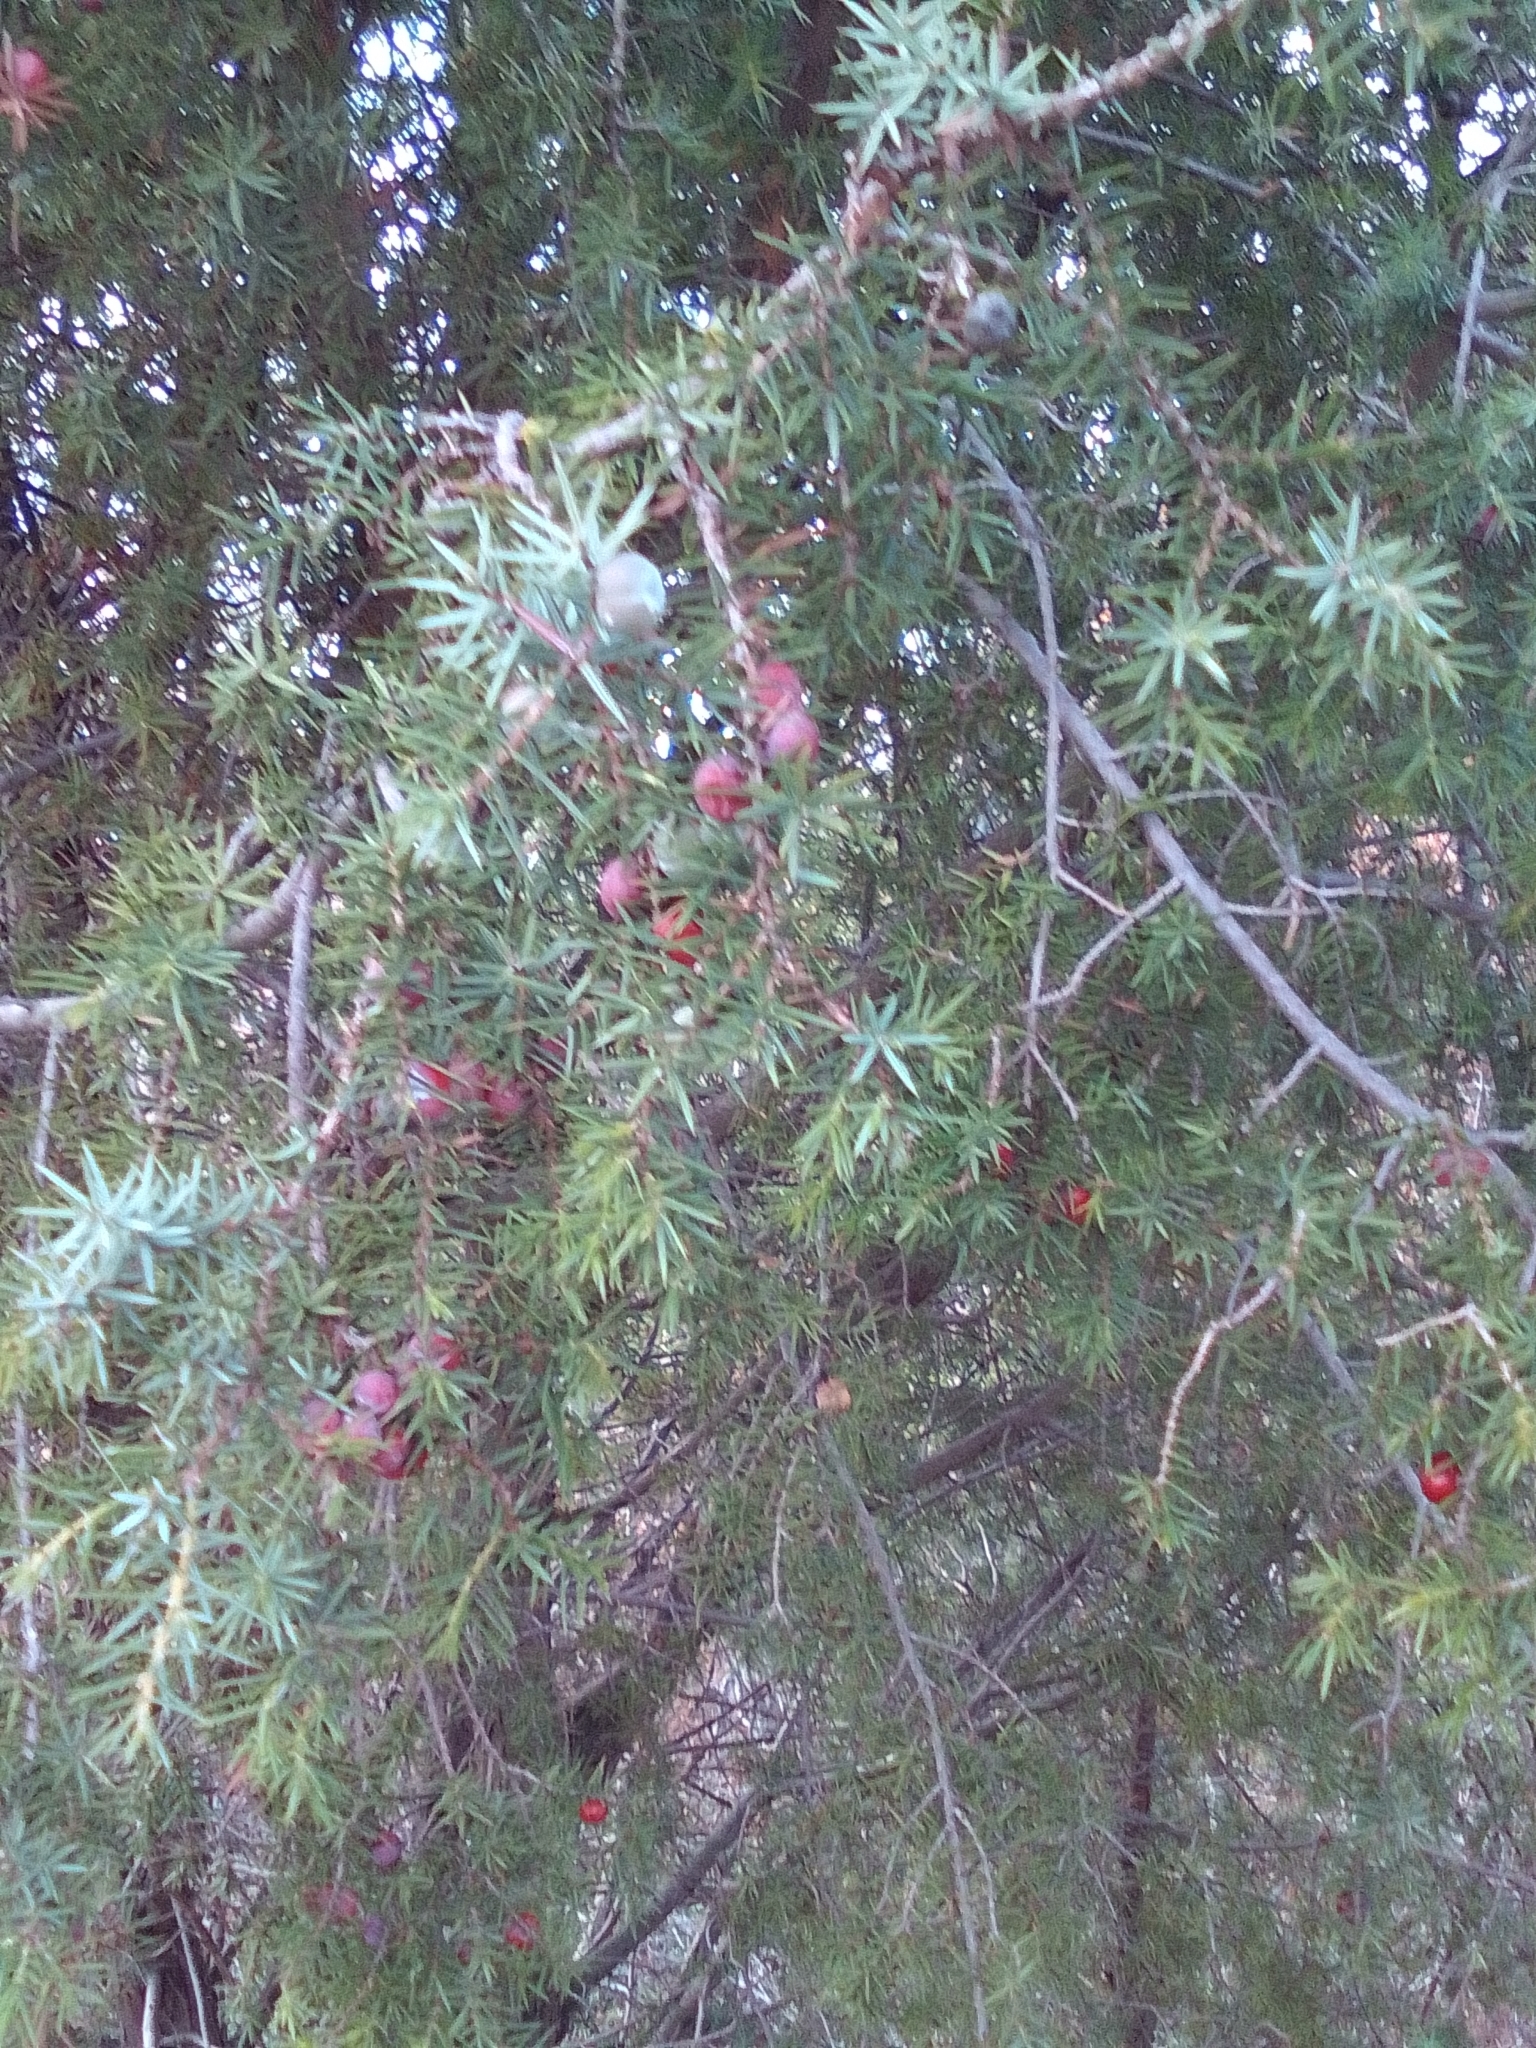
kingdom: Plantae
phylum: Tracheophyta
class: Pinopsida
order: Pinales
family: Cupressaceae
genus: Juniperus
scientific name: Juniperus oxycedrus
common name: Prickly juniper
